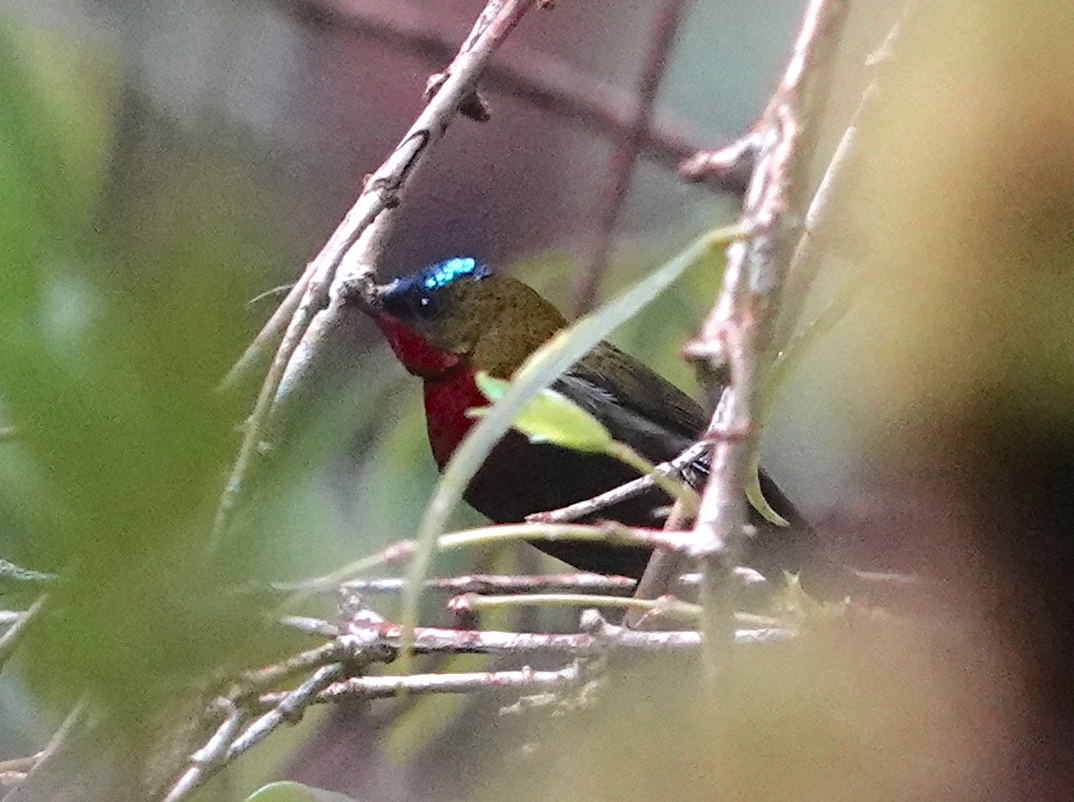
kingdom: Animalia
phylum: Chordata
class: Aves
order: Passeriformes
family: Nectariniidae
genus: Aethopyga
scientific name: Aethopyga eximia
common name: White-flanked sunbird
